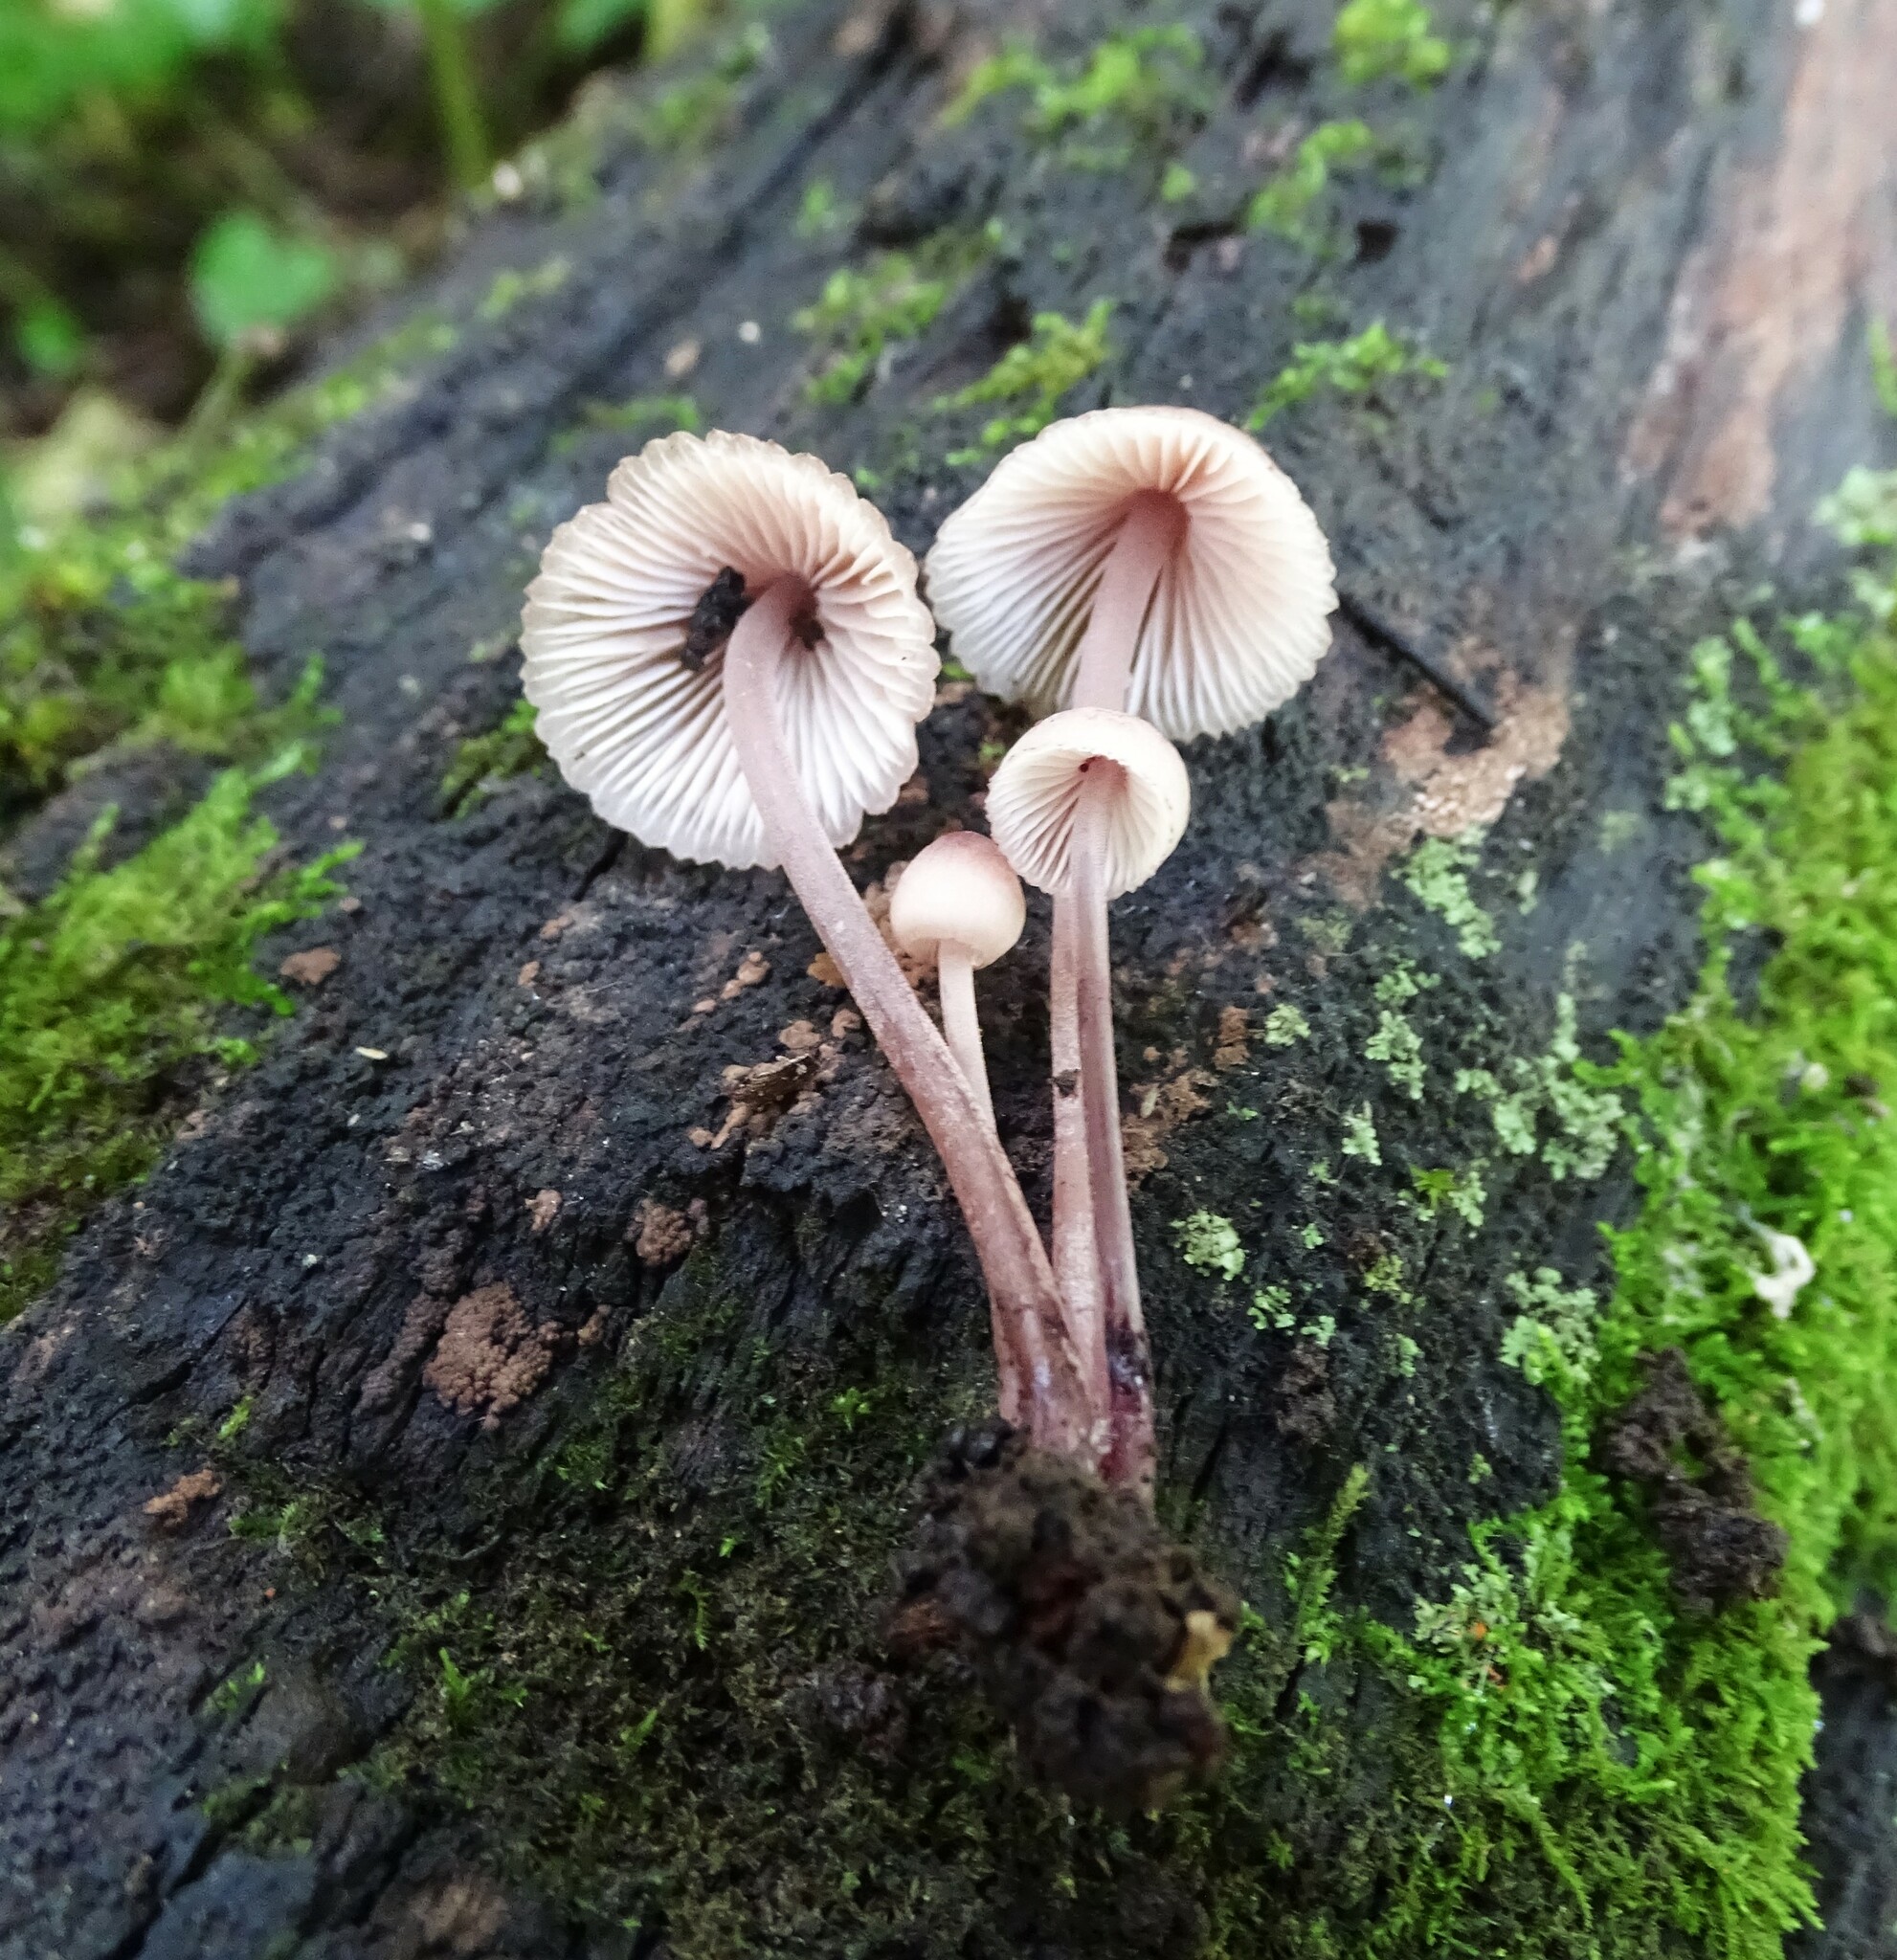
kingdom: Fungi
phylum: Basidiomycota
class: Agaricomycetes
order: Agaricales
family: Mycenaceae
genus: Mycena
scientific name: Mycena haematopus
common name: Burgundydrop bonnet
